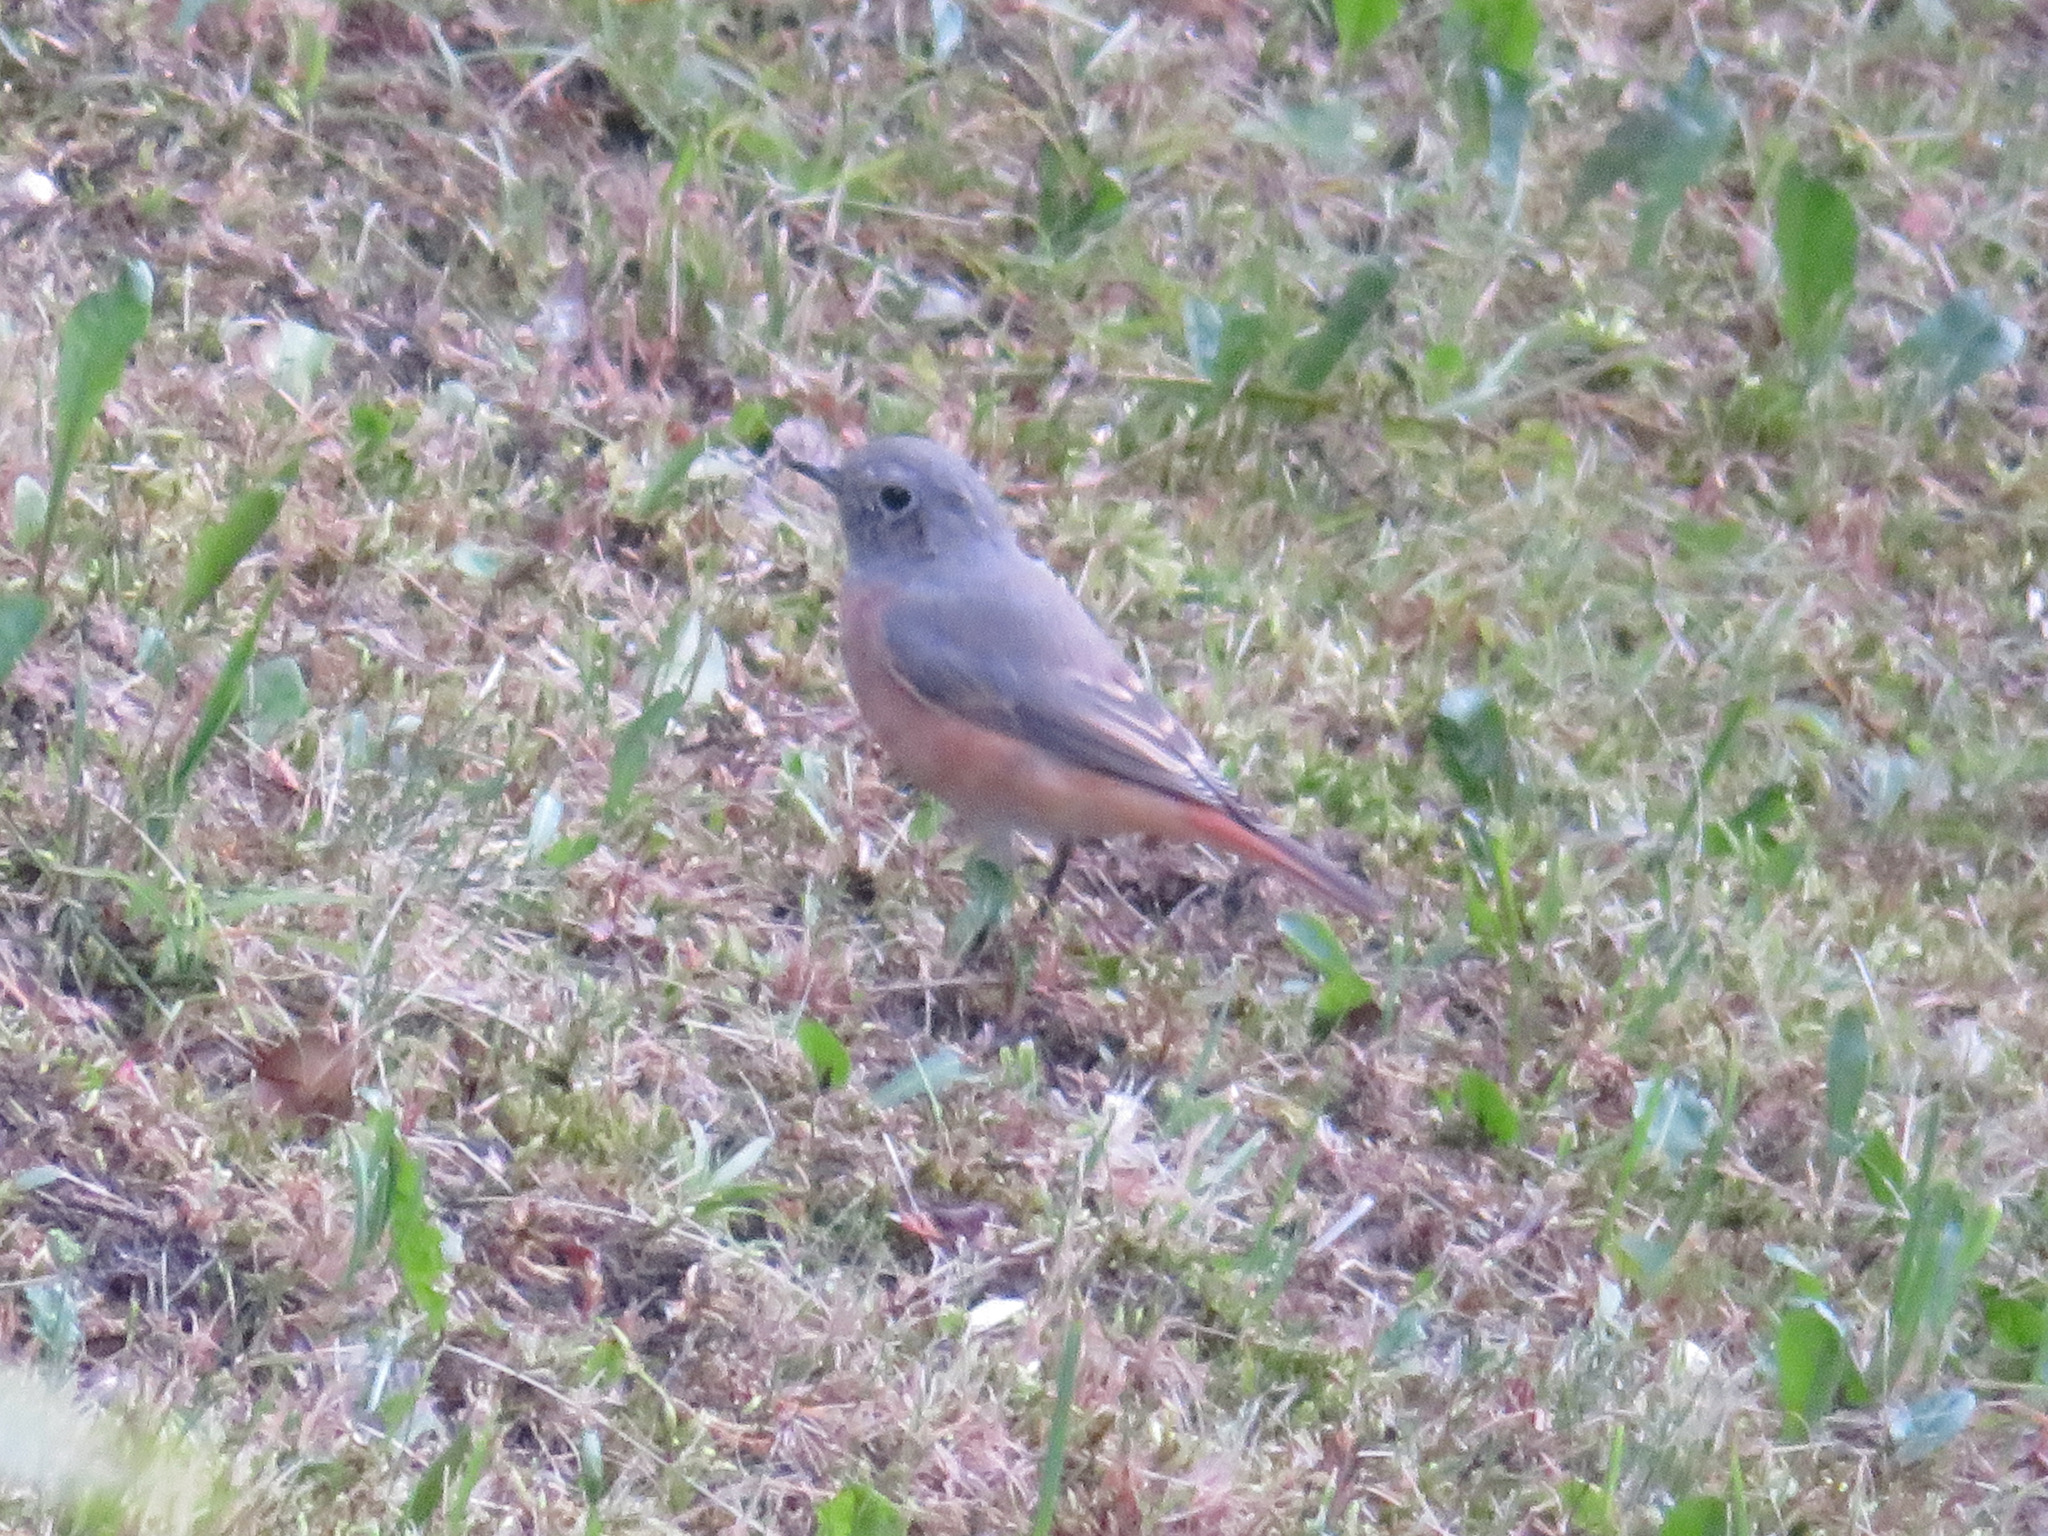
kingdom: Animalia
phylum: Chordata
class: Aves
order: Passeriformes
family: Muscicapidae
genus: Phoenicurus
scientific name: Phoenicurus phoenicurus
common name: Common redstart
